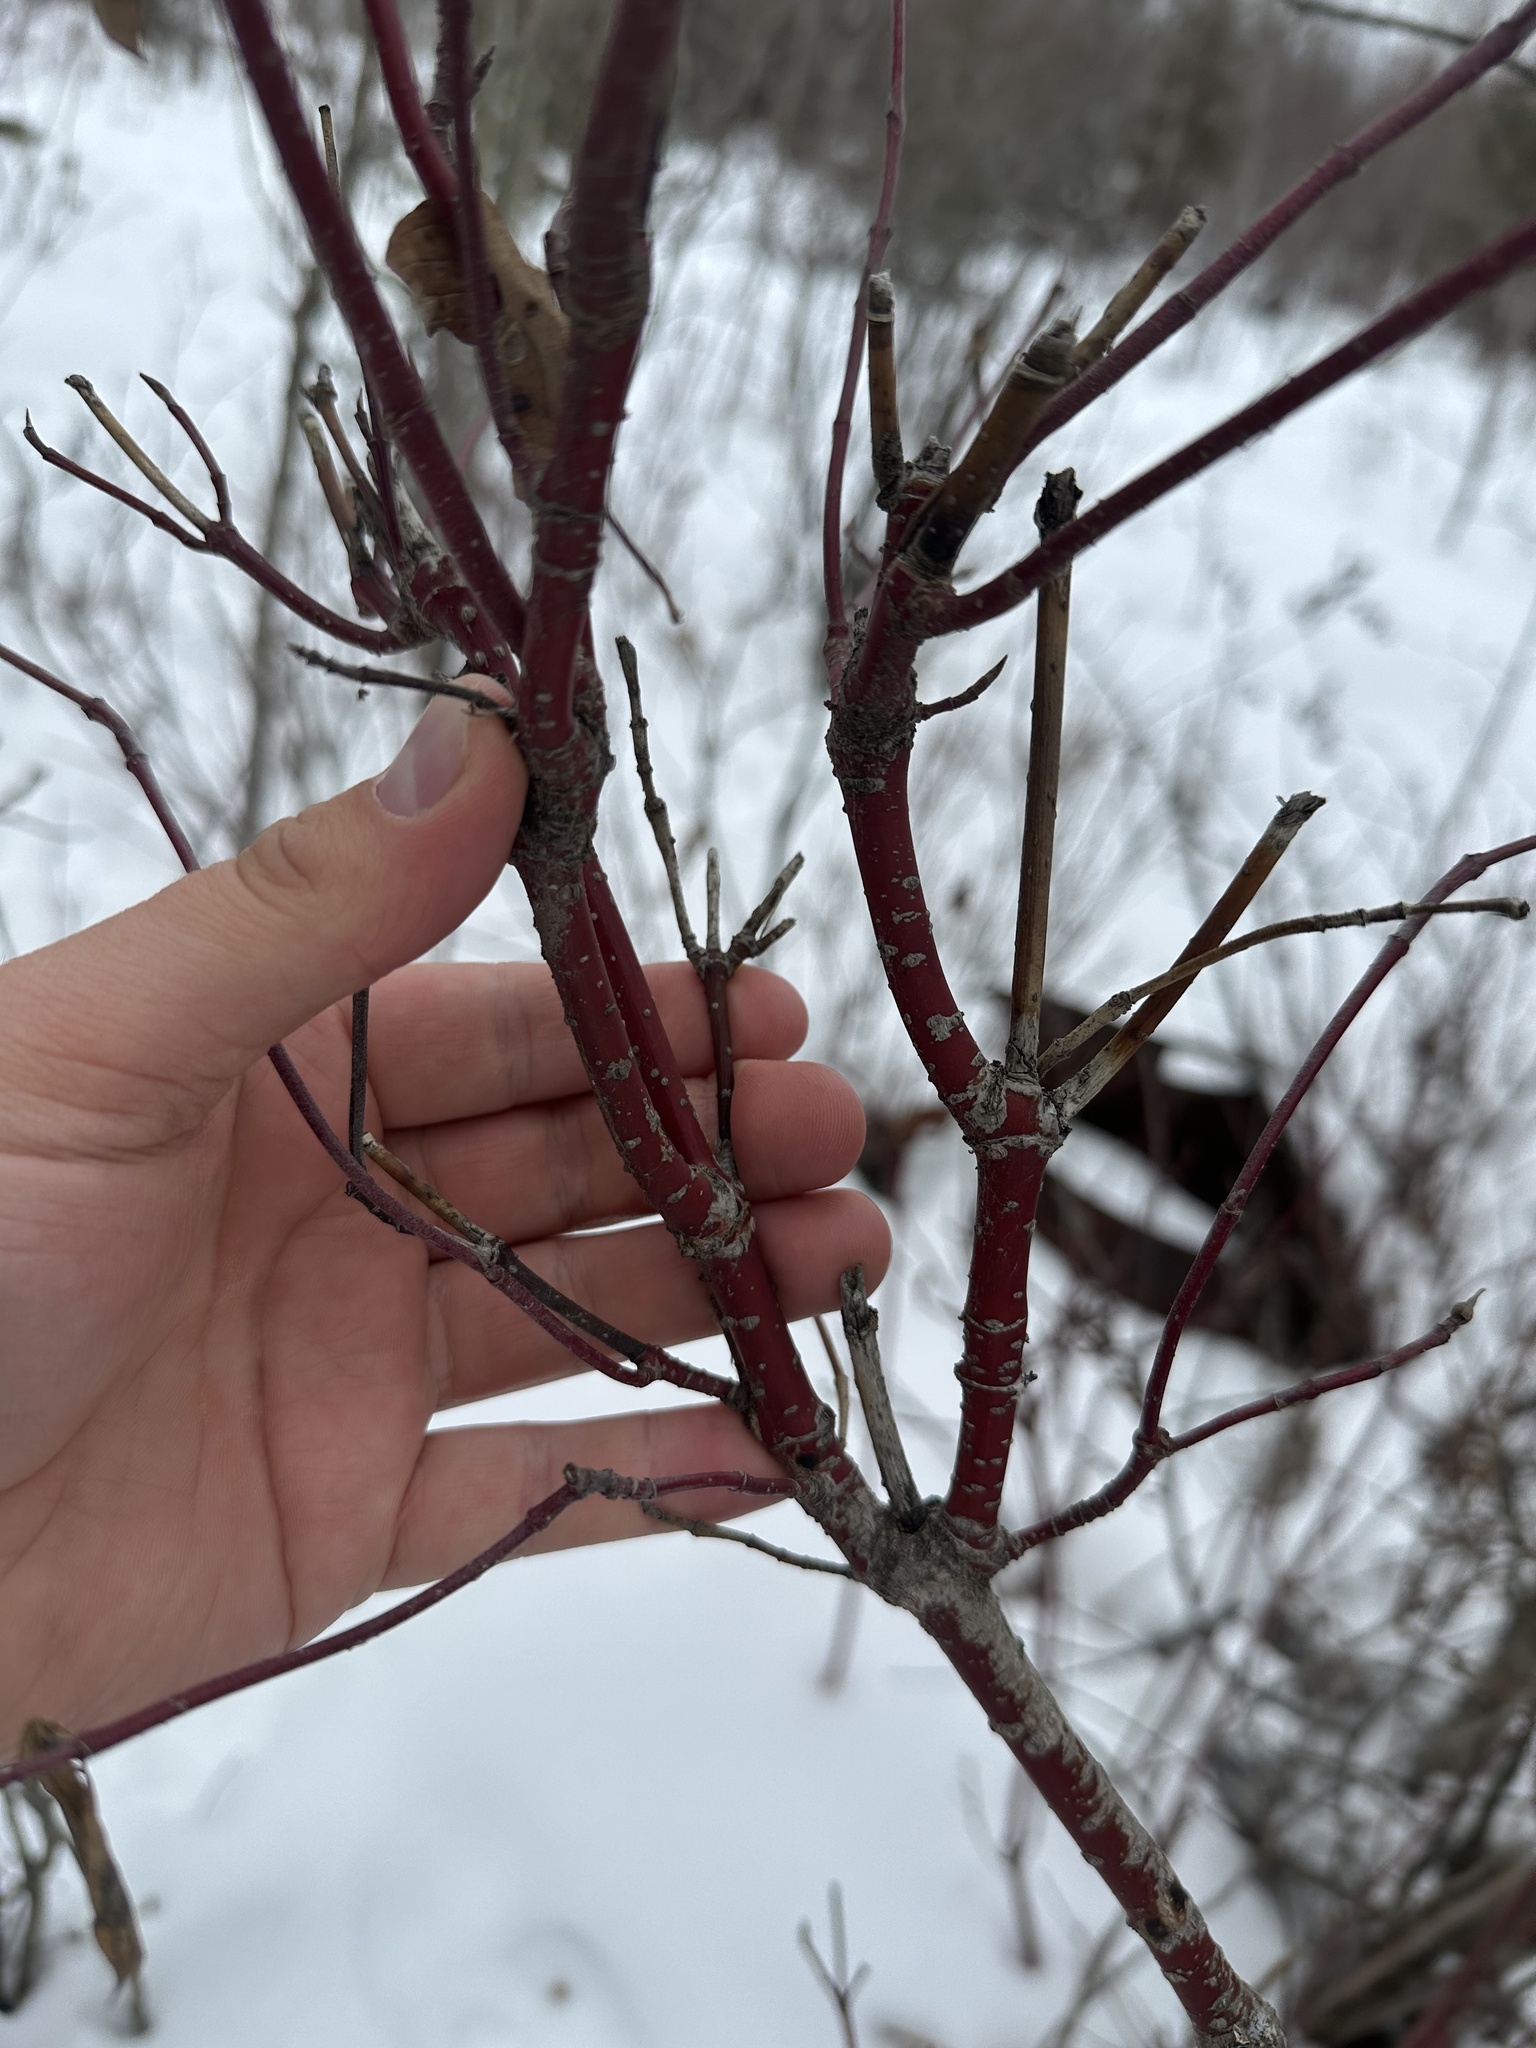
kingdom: Plantae
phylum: Tracheophyta
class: Magnoliopsida
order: Cornales
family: Cornaceae
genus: Cornus
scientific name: Cornus sericea
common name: Red-osier dogwood
